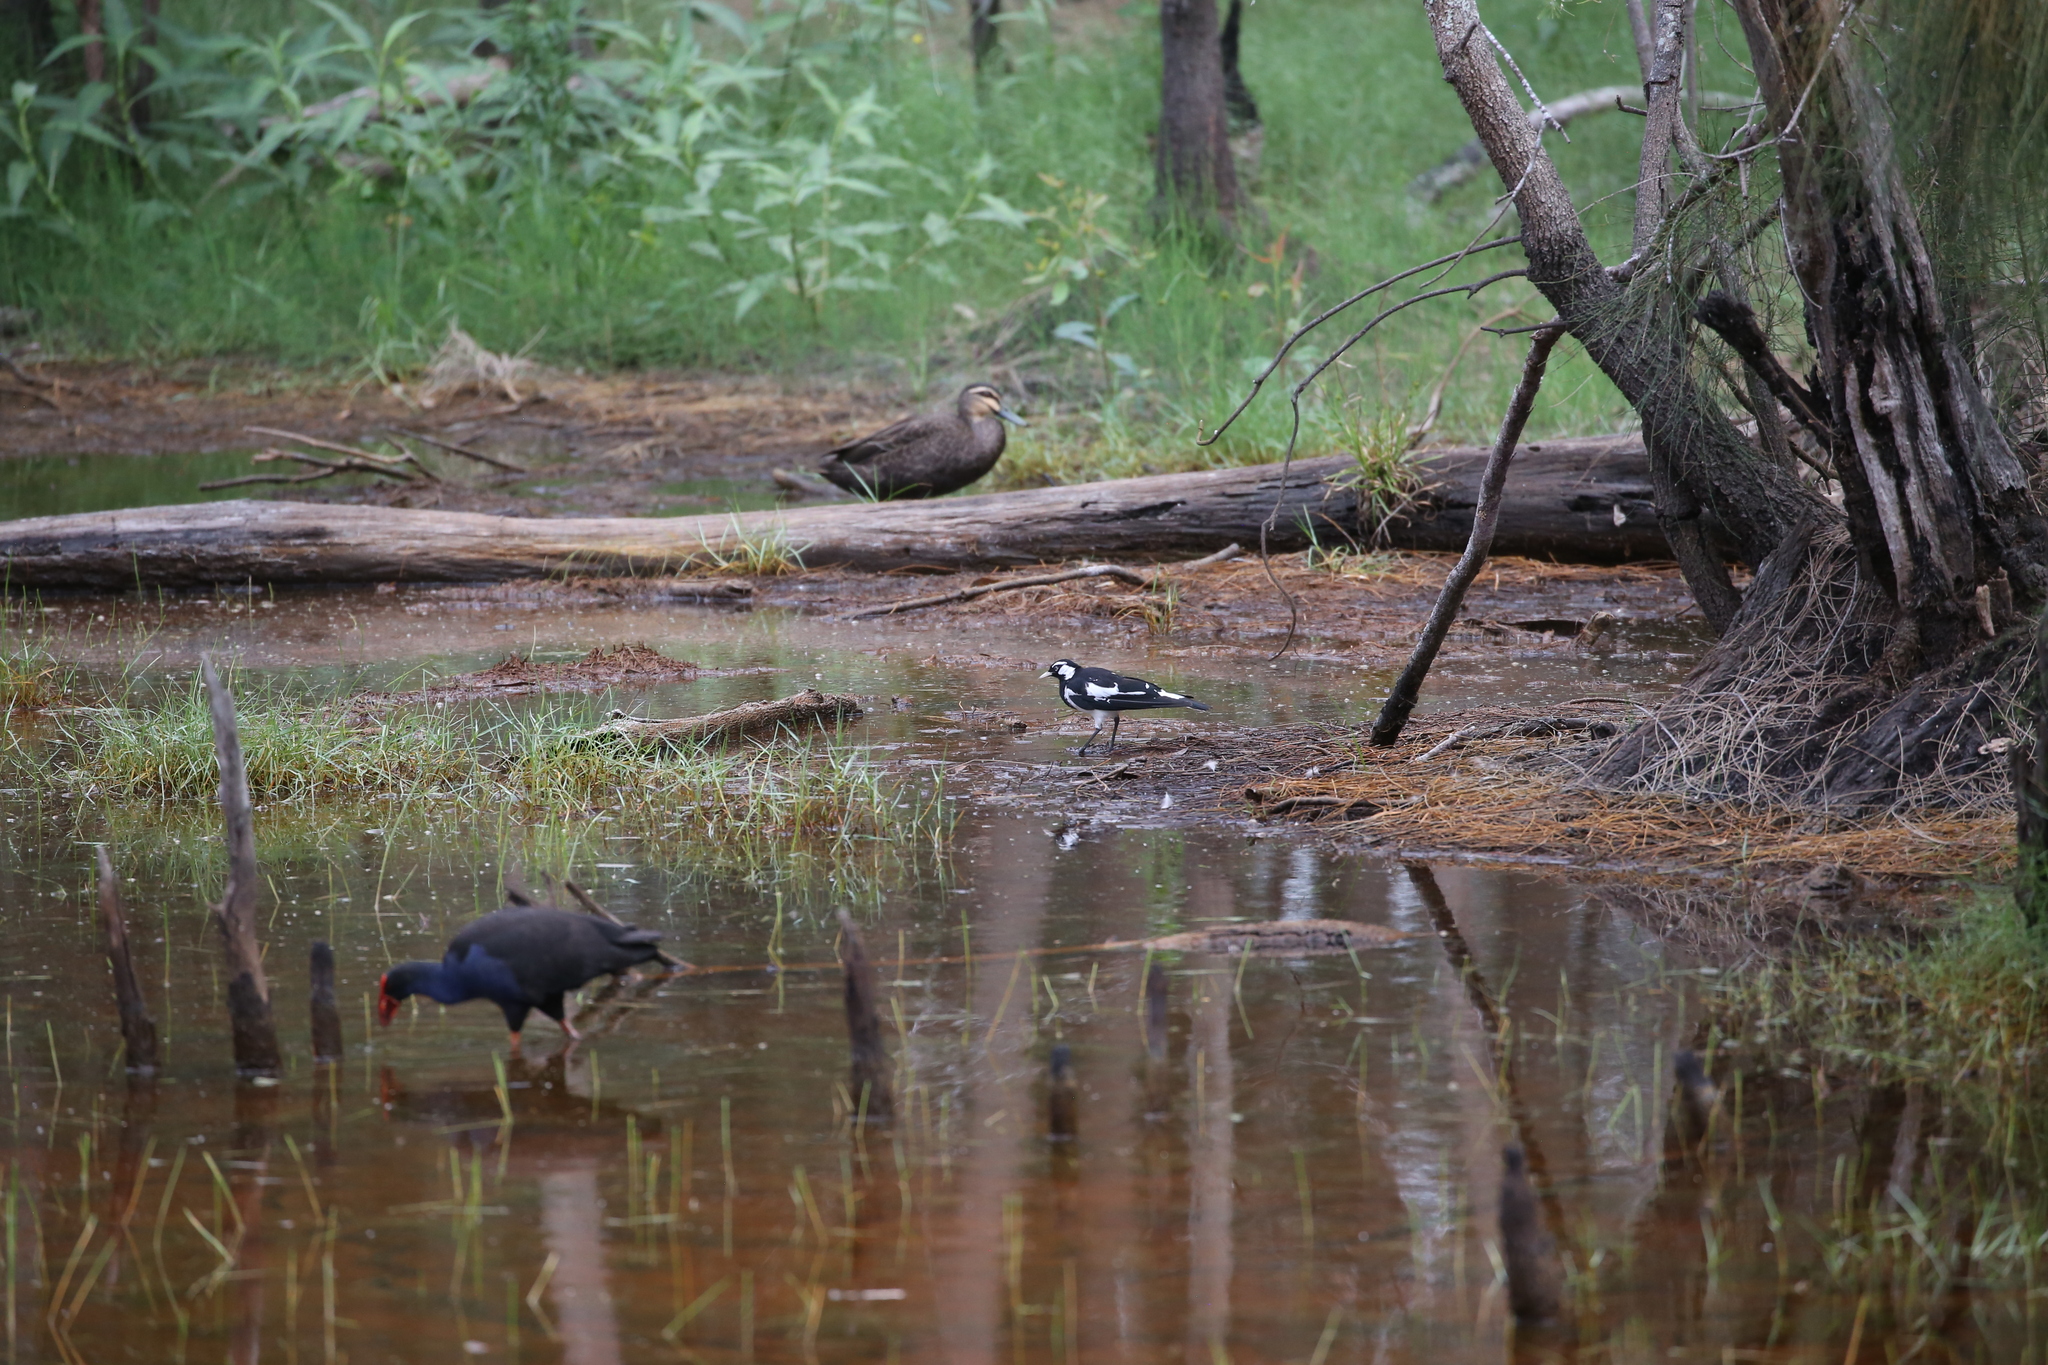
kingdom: Animalia
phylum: Chordata
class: Aves
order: Passeriformes
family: Monarchidae
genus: Grallina
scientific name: Grallina cyanoleuca
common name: Magpie-lark
